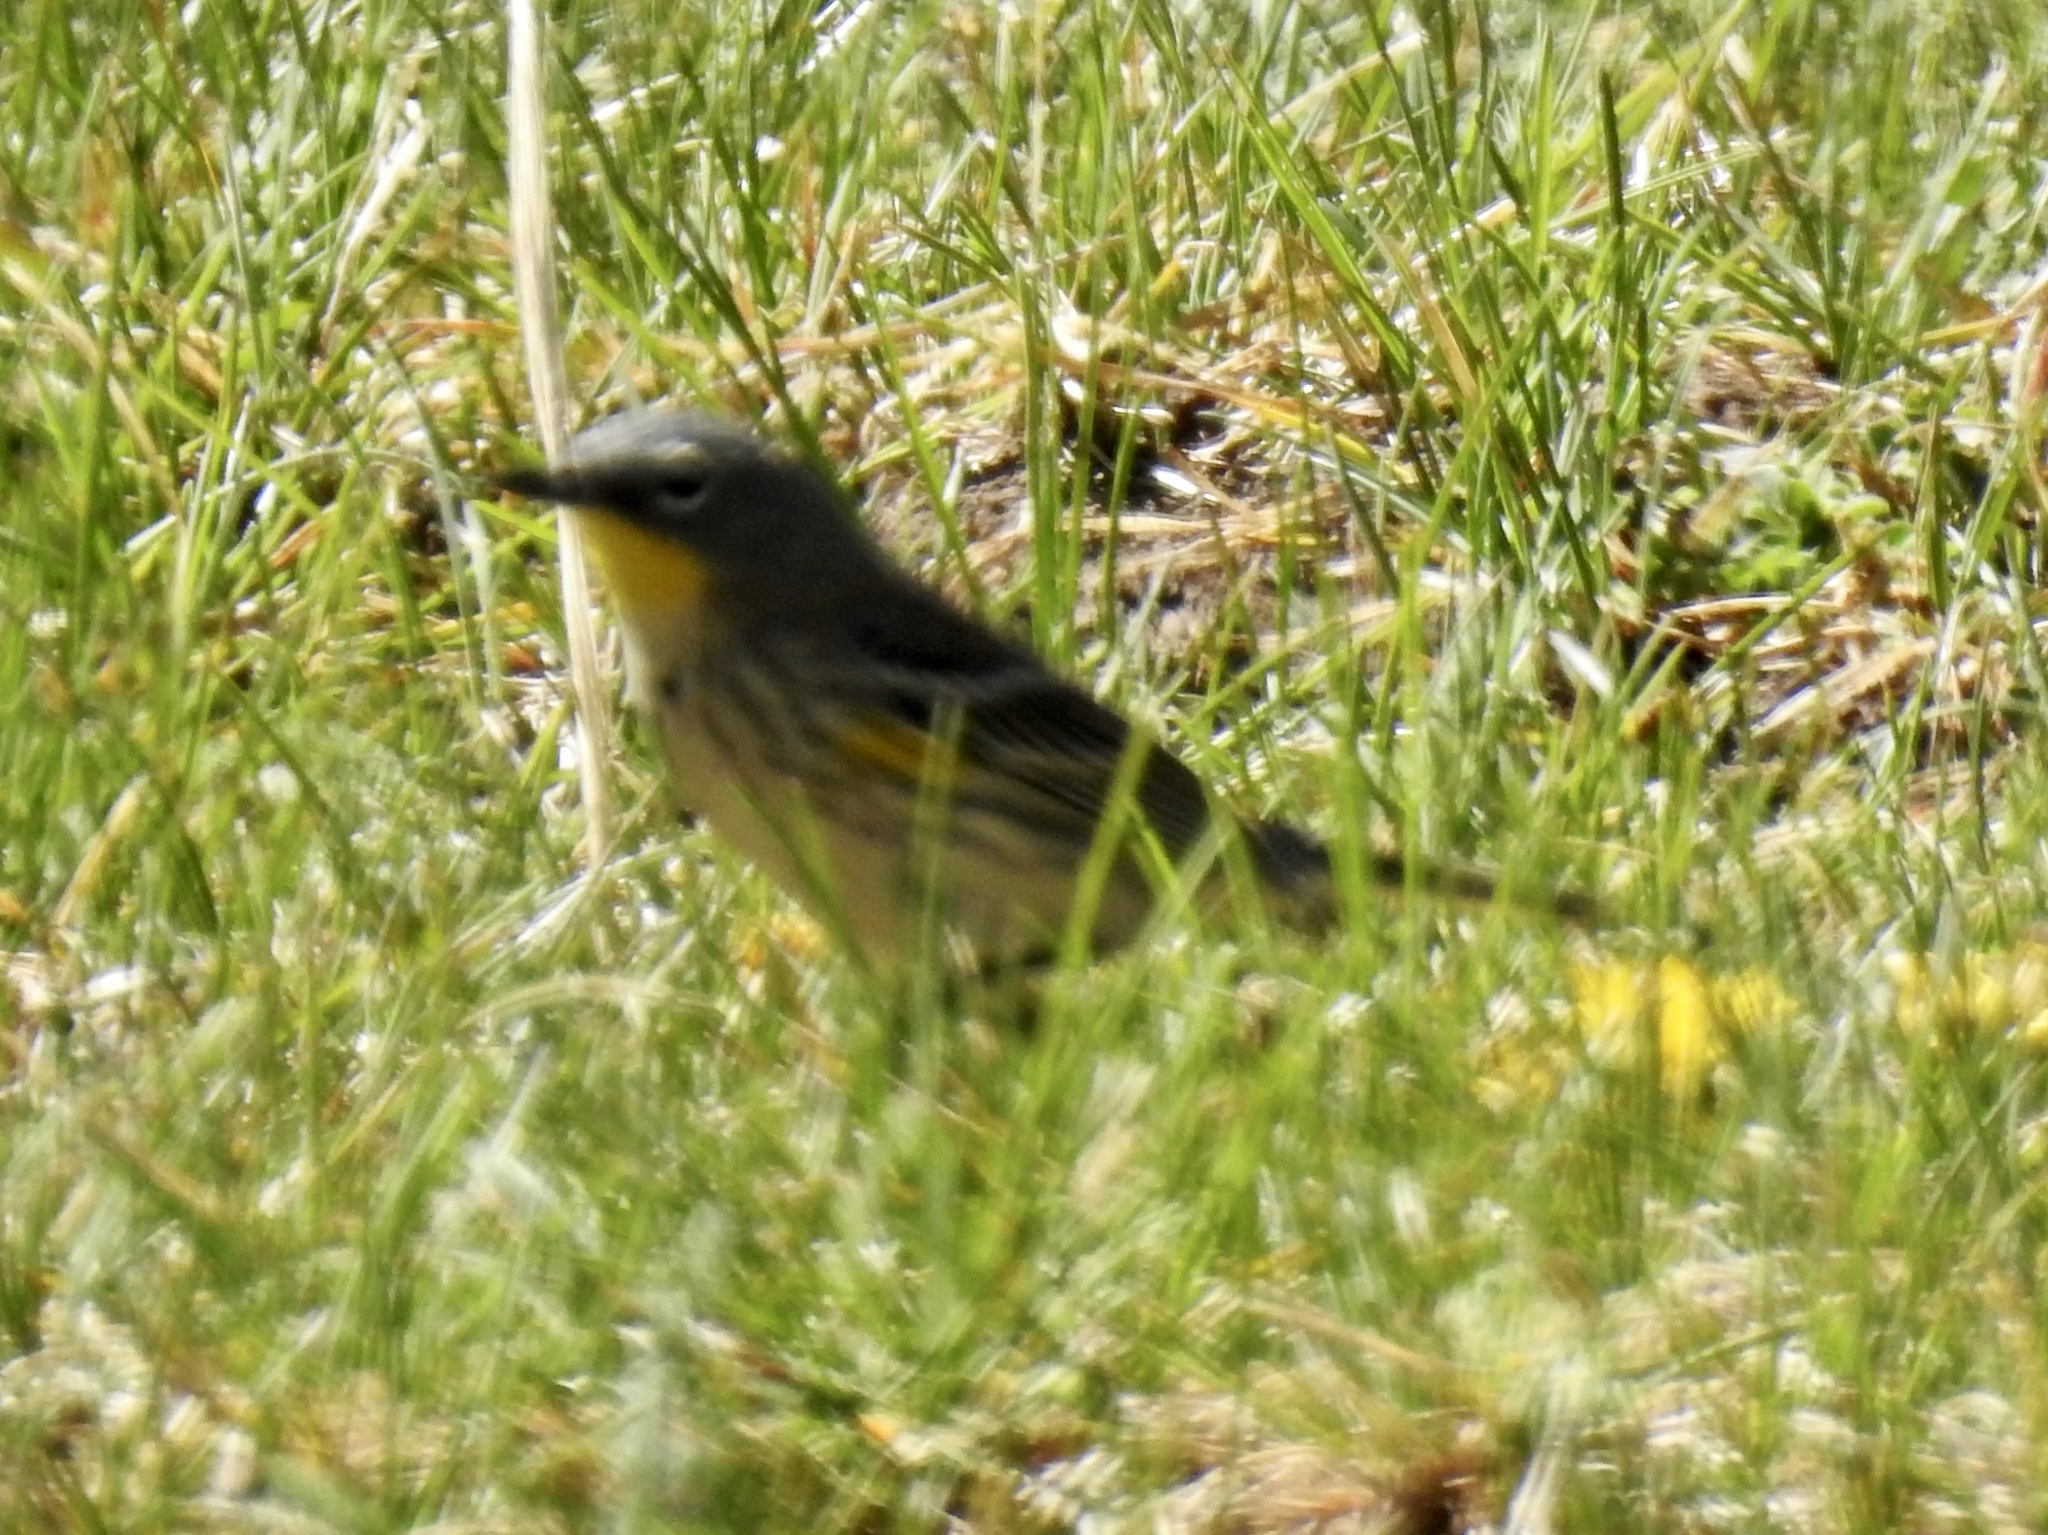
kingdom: Animalia
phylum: Chordata
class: Aves
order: Passeriformes
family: Parulidae
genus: Setophaga
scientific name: Setophaga coronata
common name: Myrtle warbler
